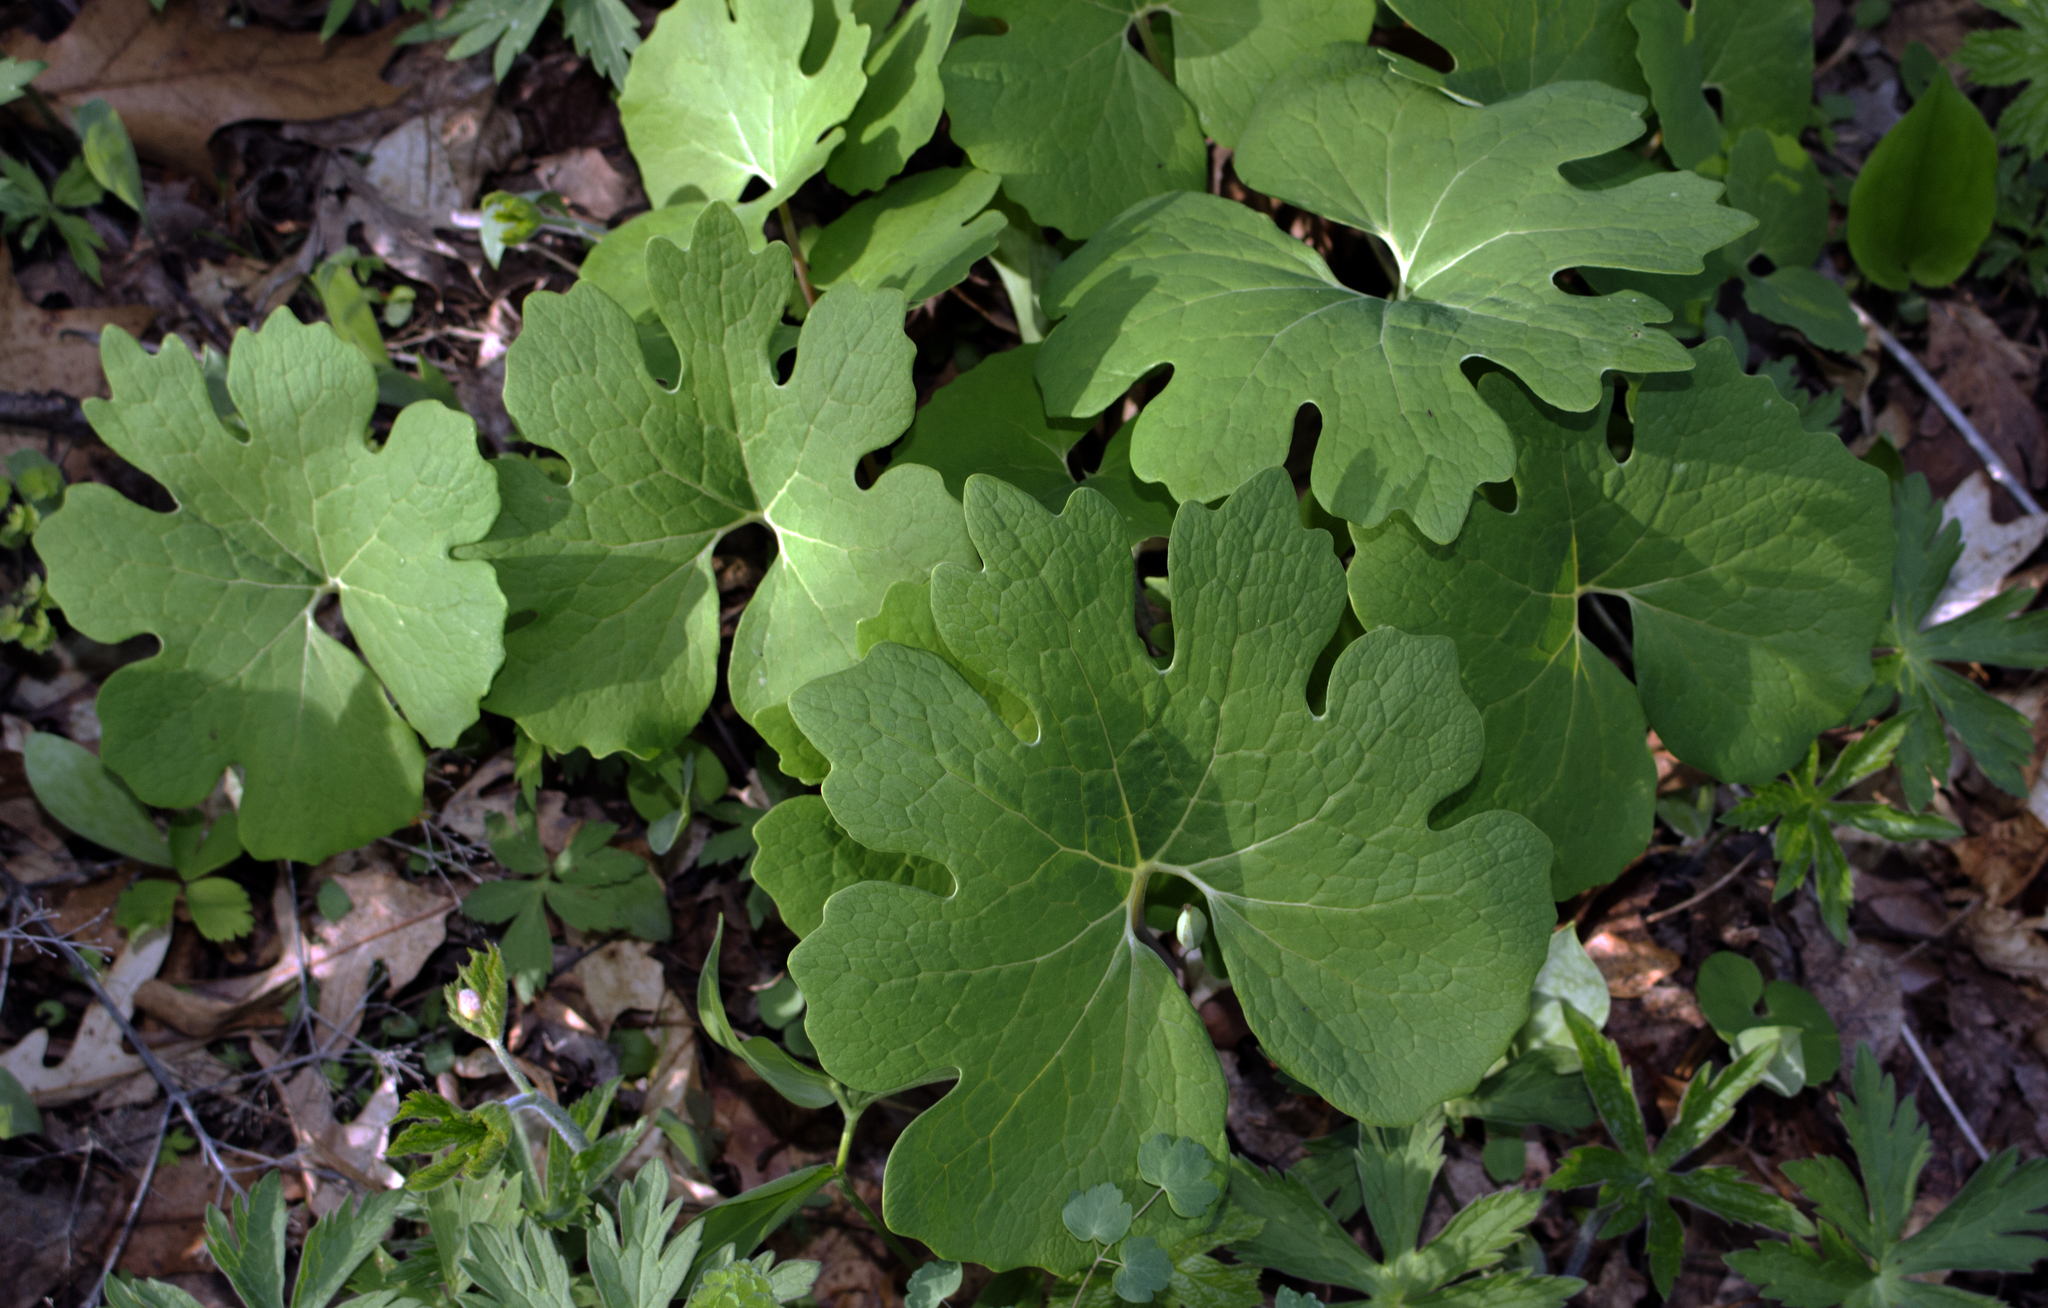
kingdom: Plantae
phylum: Tracheophyta
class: Magnoliopsida
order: Ranunculales
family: Papaveraceae
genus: Sanguinaria
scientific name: Sanguinaria canadensis
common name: Bloodroot
